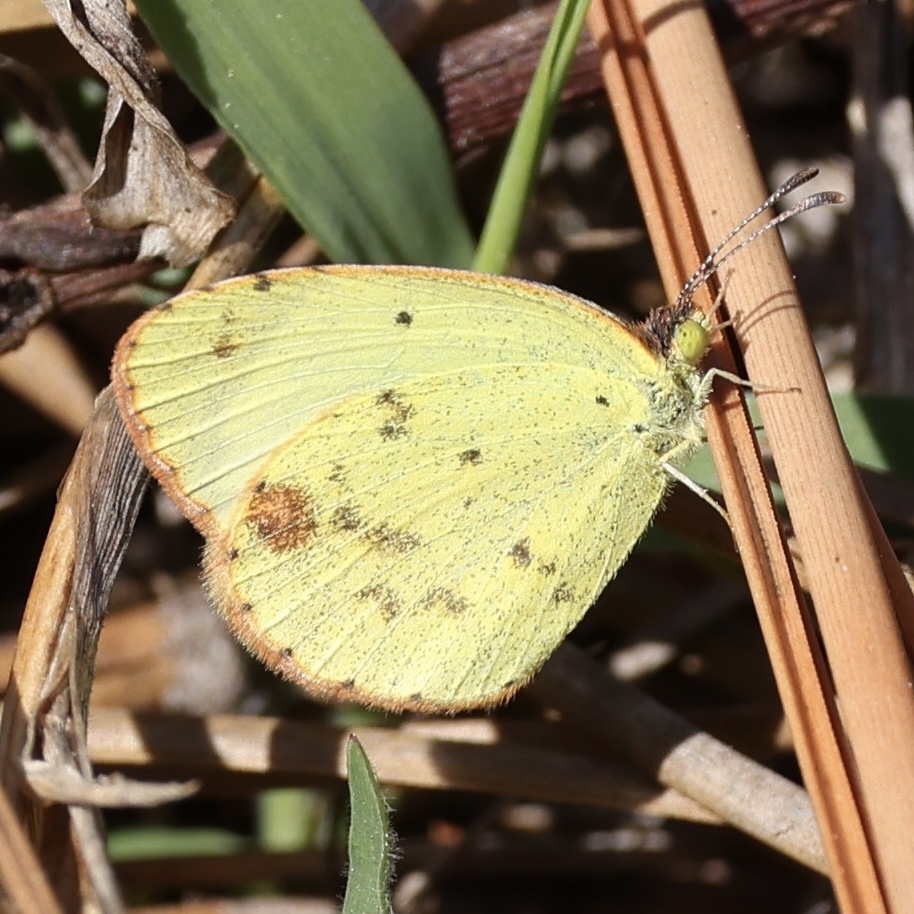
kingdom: Animalia
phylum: Arthropoda
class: Insecta
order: Lepidoptera
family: Pieridae
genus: Pyrisitia
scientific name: Pyrisitia lisa
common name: Little yellow
